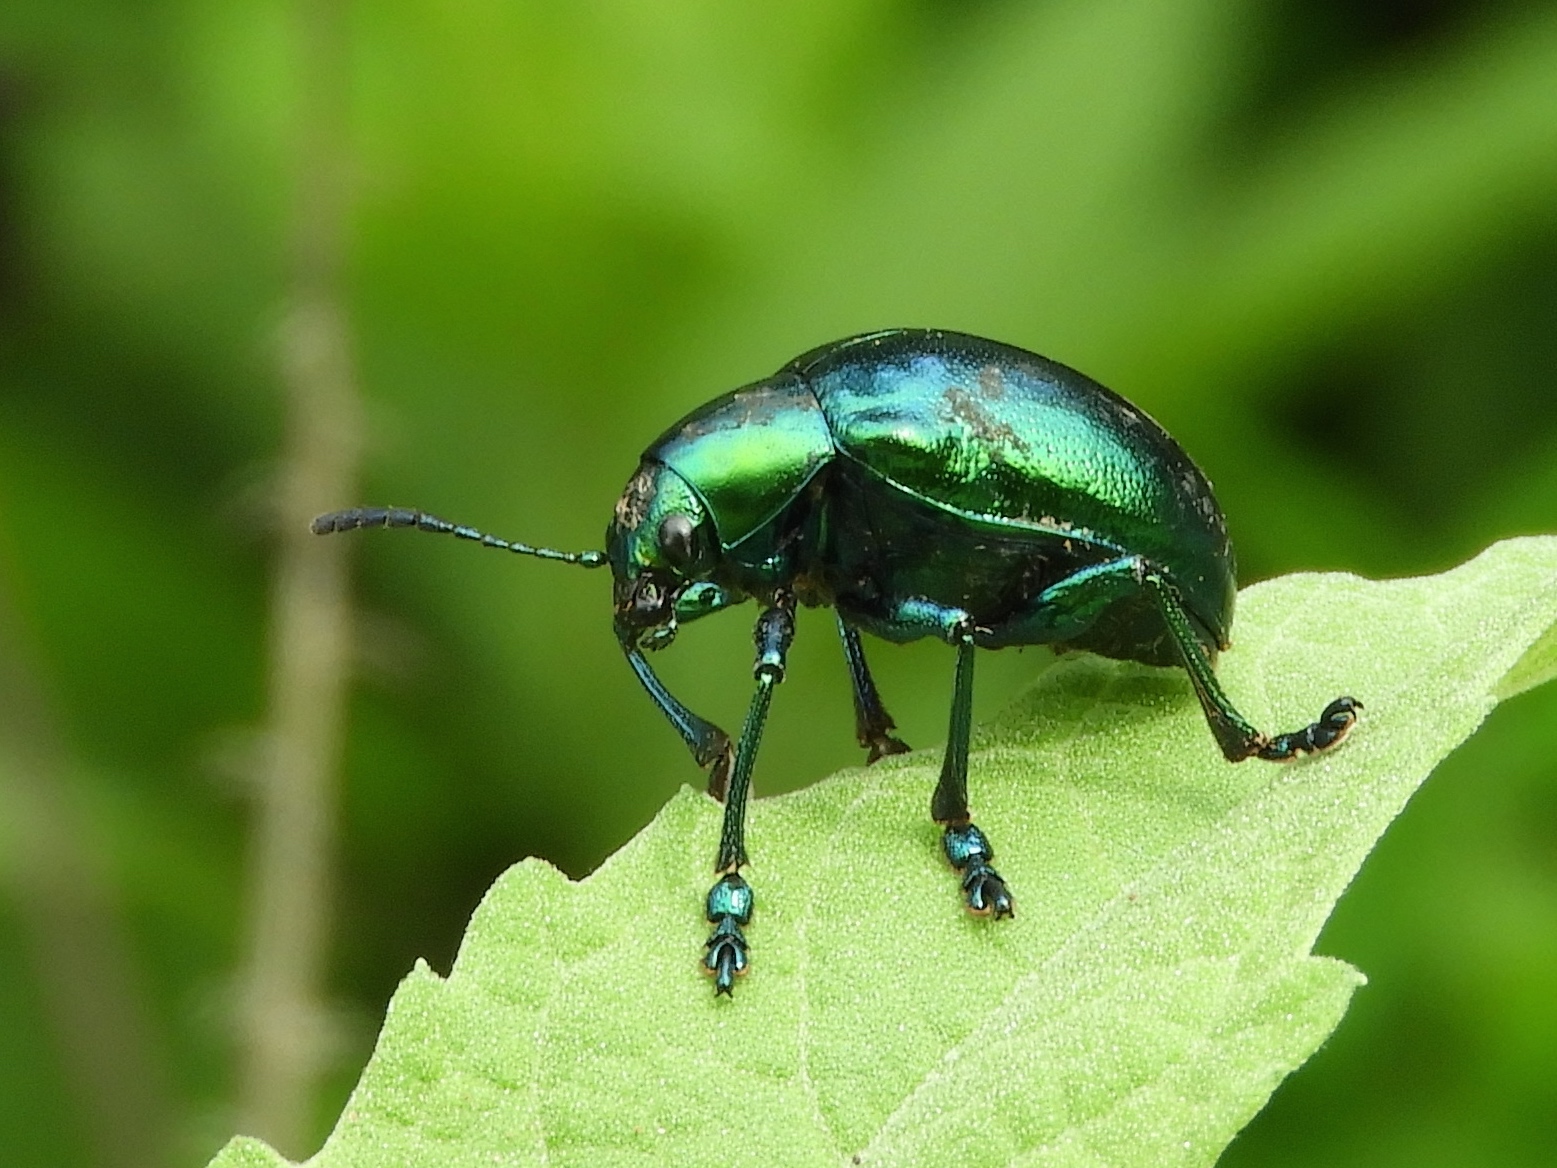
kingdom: Animalia
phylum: Arthropoda
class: Insecta
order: Coleoptera
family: Chrysomelidae
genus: Eumolpus
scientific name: Eumolpus robustus
